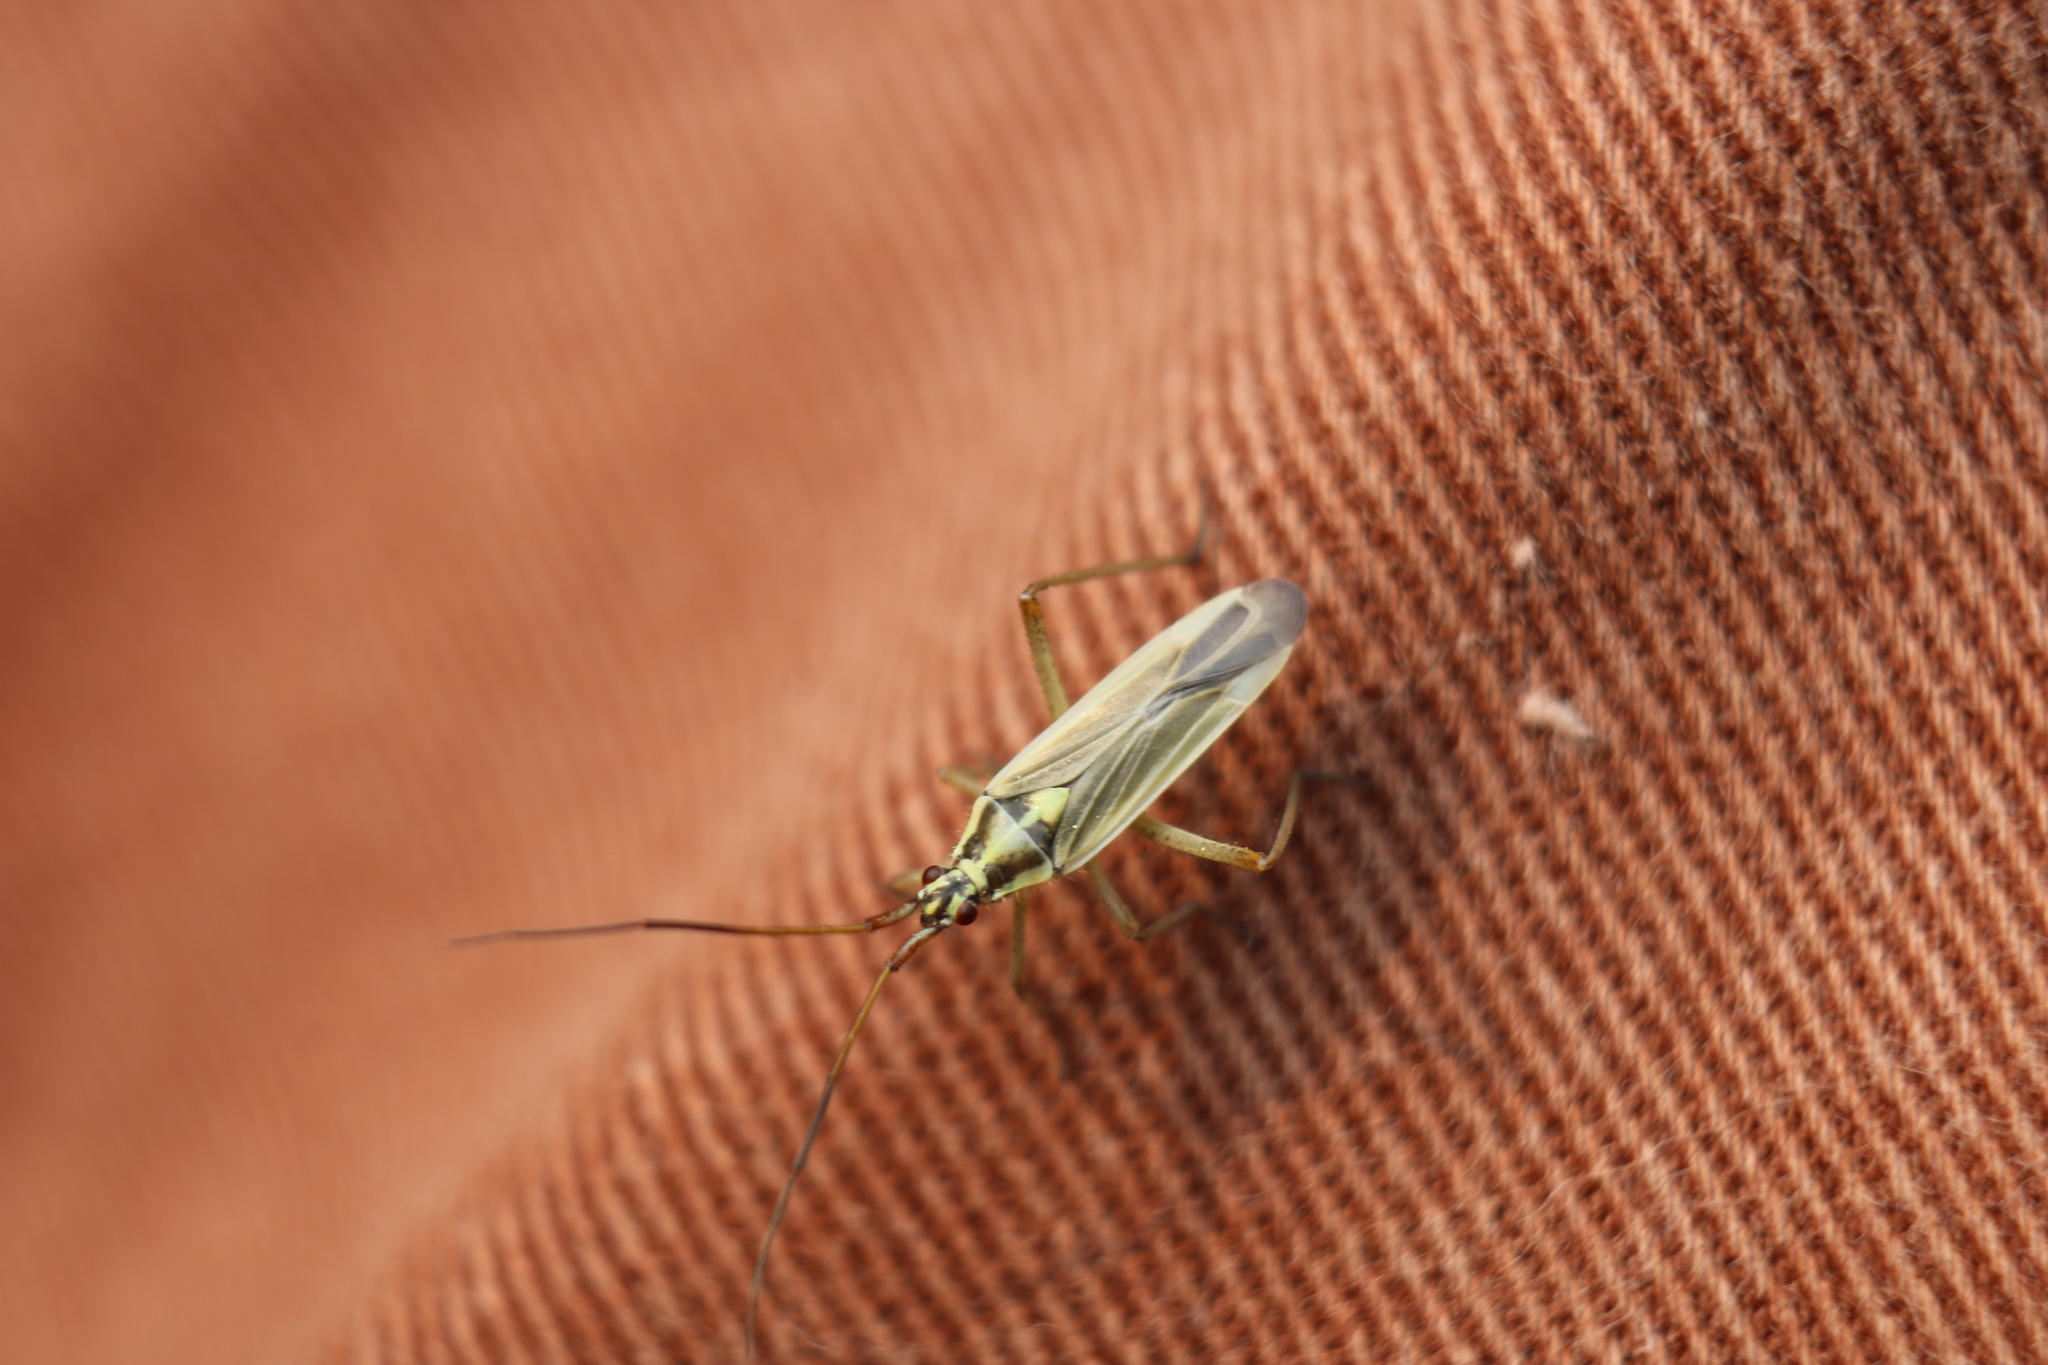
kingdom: Animalia
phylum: Arthropoda
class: Insecta
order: Hemiptera
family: Miridae
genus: Leptopterna
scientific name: Leptopterna dolabrata
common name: Meadow plant bug
